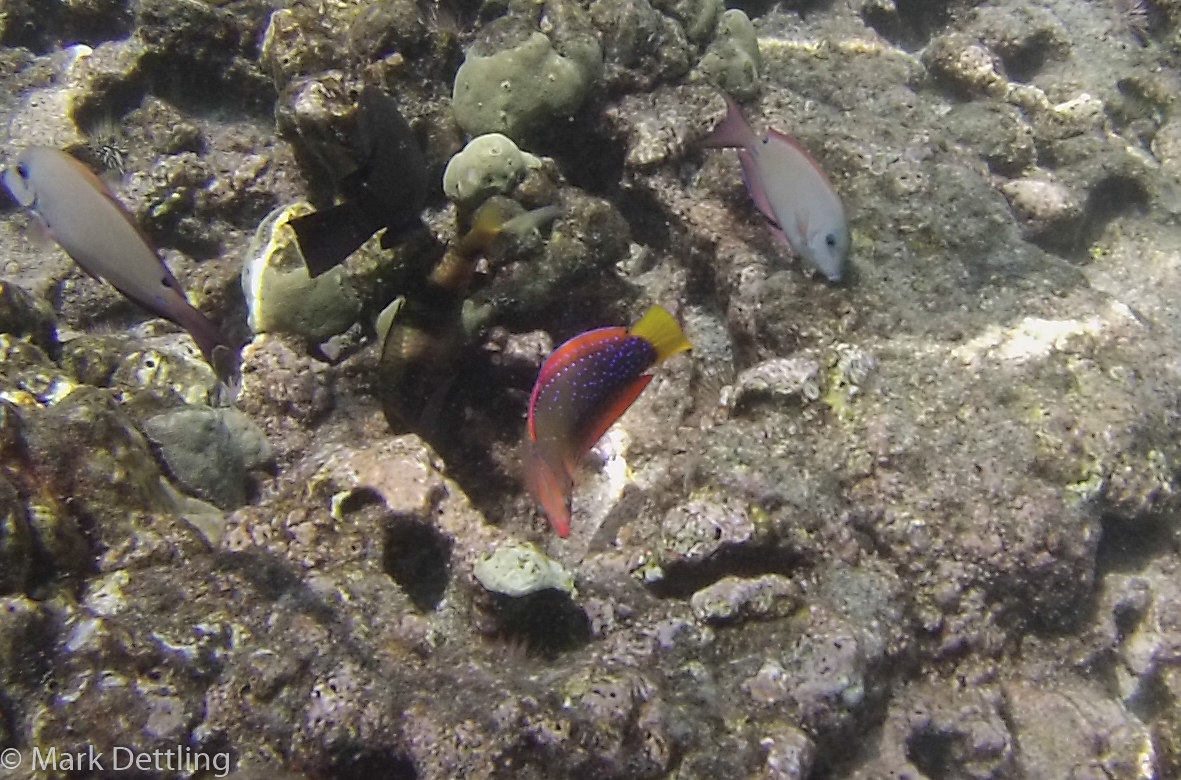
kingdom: Animalia
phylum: Chordata
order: Perciformes
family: Labridae
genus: Coris
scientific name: Coris gaimard
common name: Yellowtail coris
